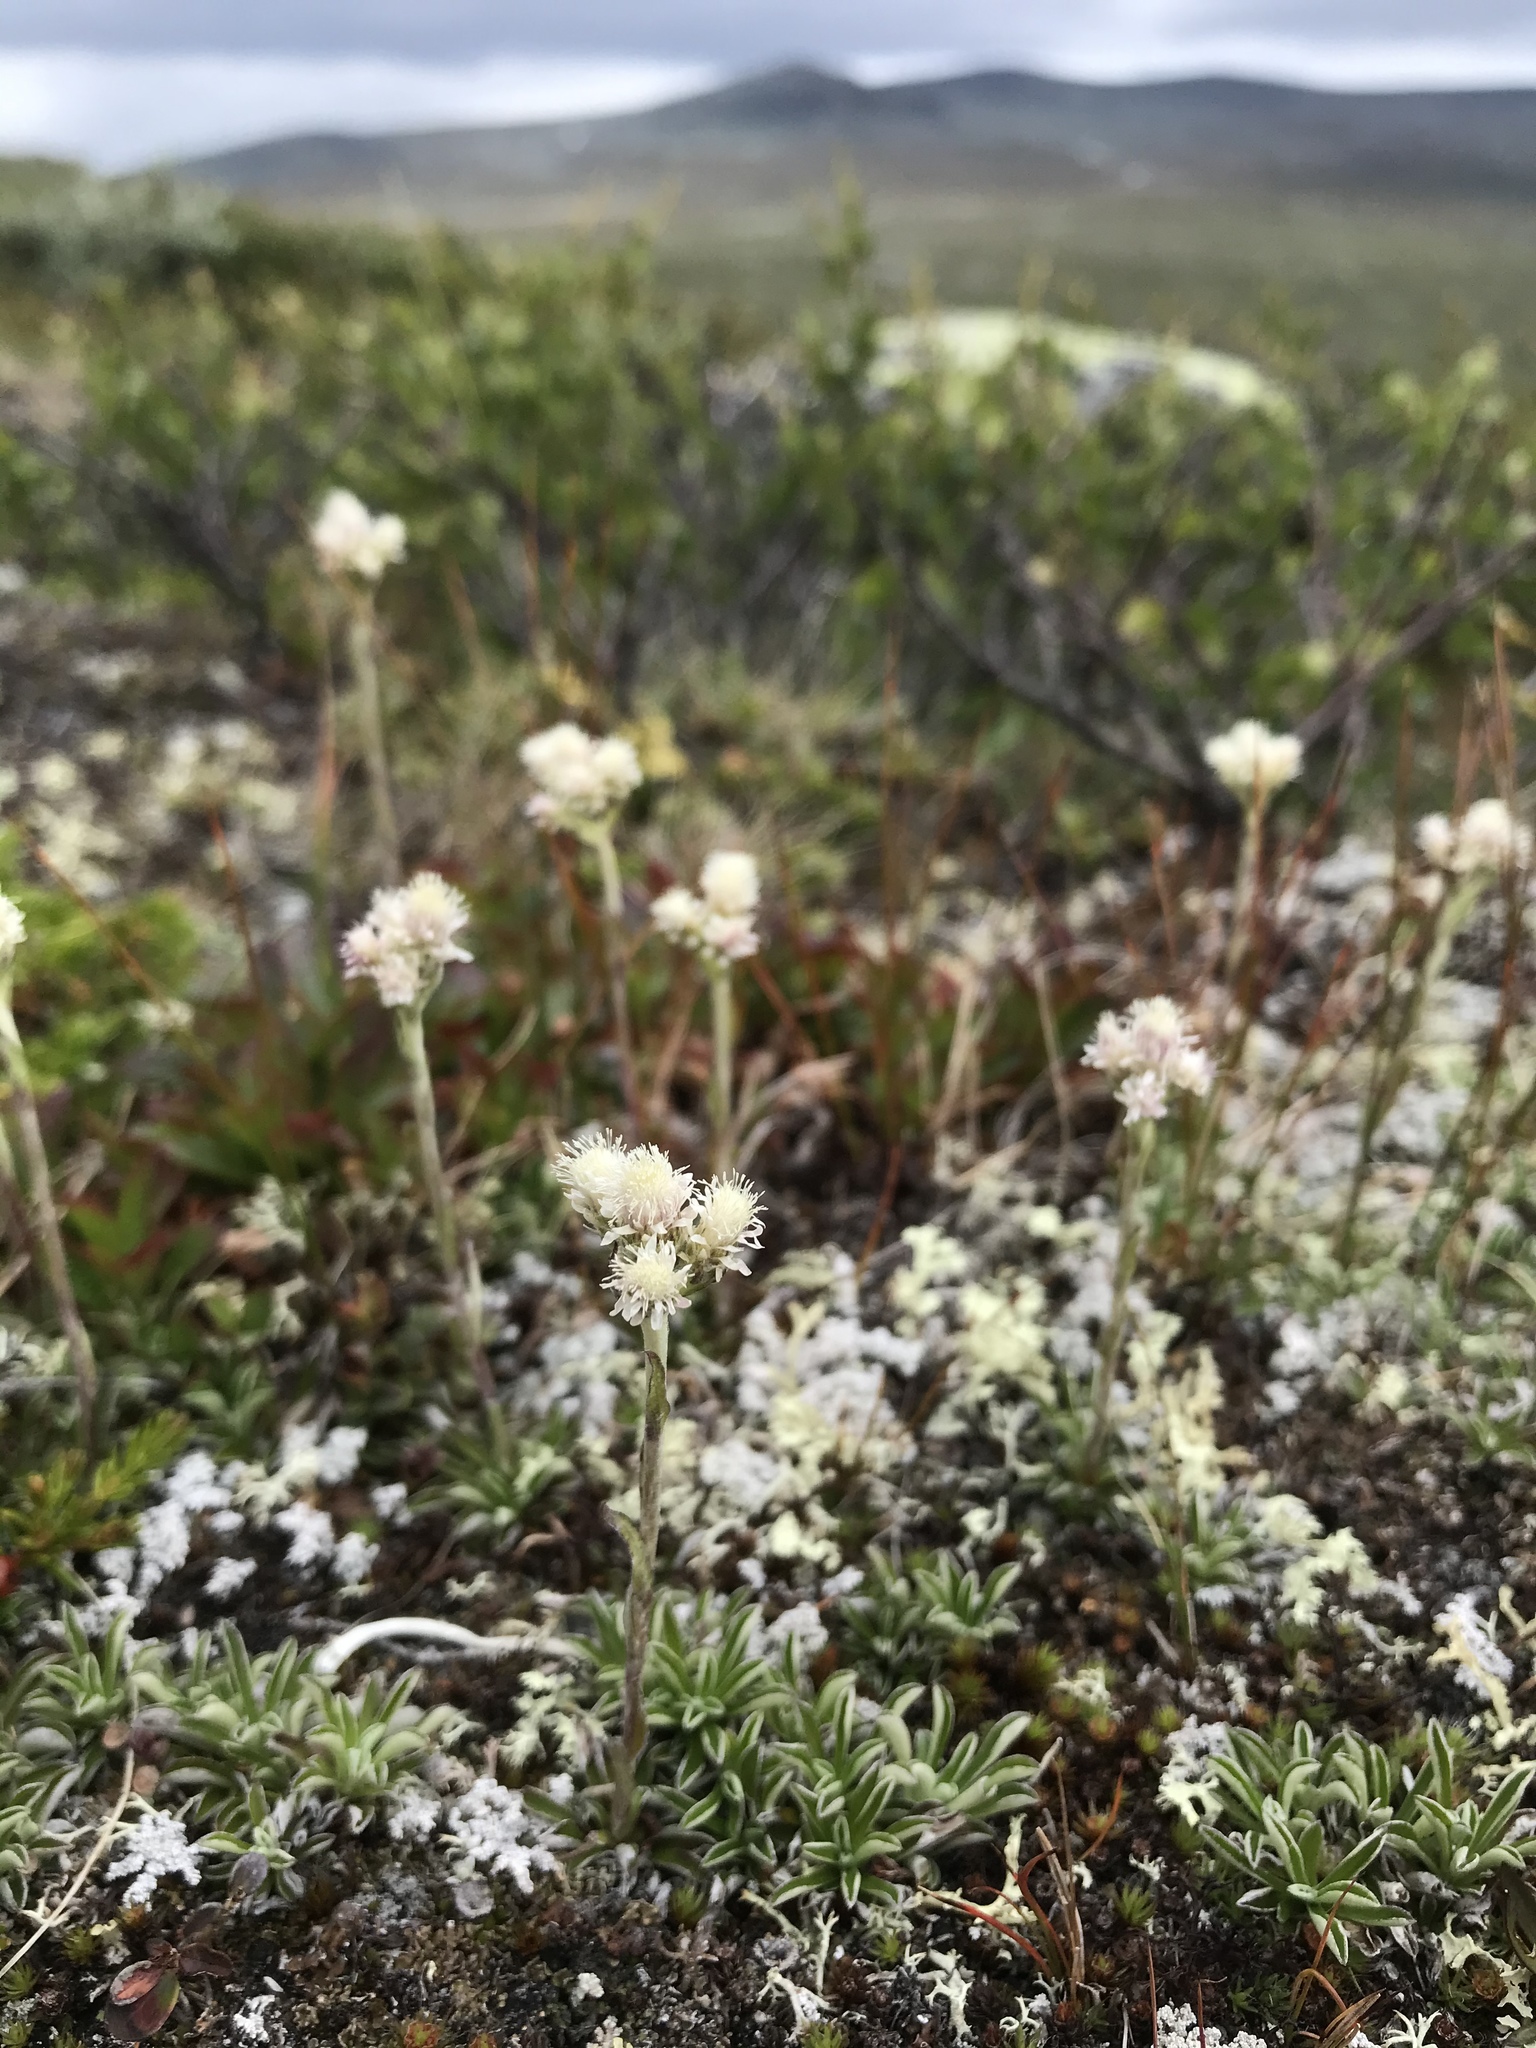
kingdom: Plantae
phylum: Tracheophyta
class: Magnoliopsida
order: Asterales
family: Asteraceae
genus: Antennaria
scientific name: Antennaria dioica
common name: Mountain everlasting
